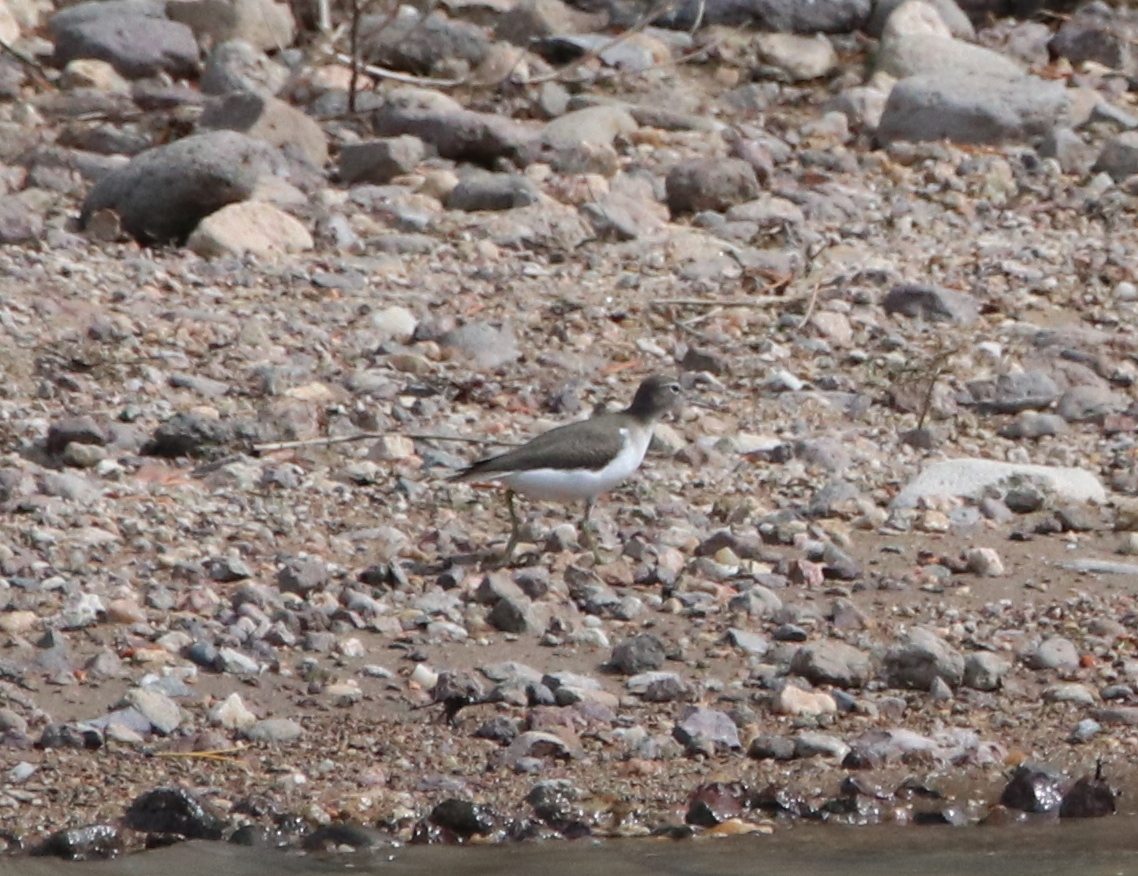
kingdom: Animalia
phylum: Chordata
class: Aves
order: Charadriiformes
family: Scolopacidae
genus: Actitis
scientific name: Actitis macularius
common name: Spotted sandpiper
